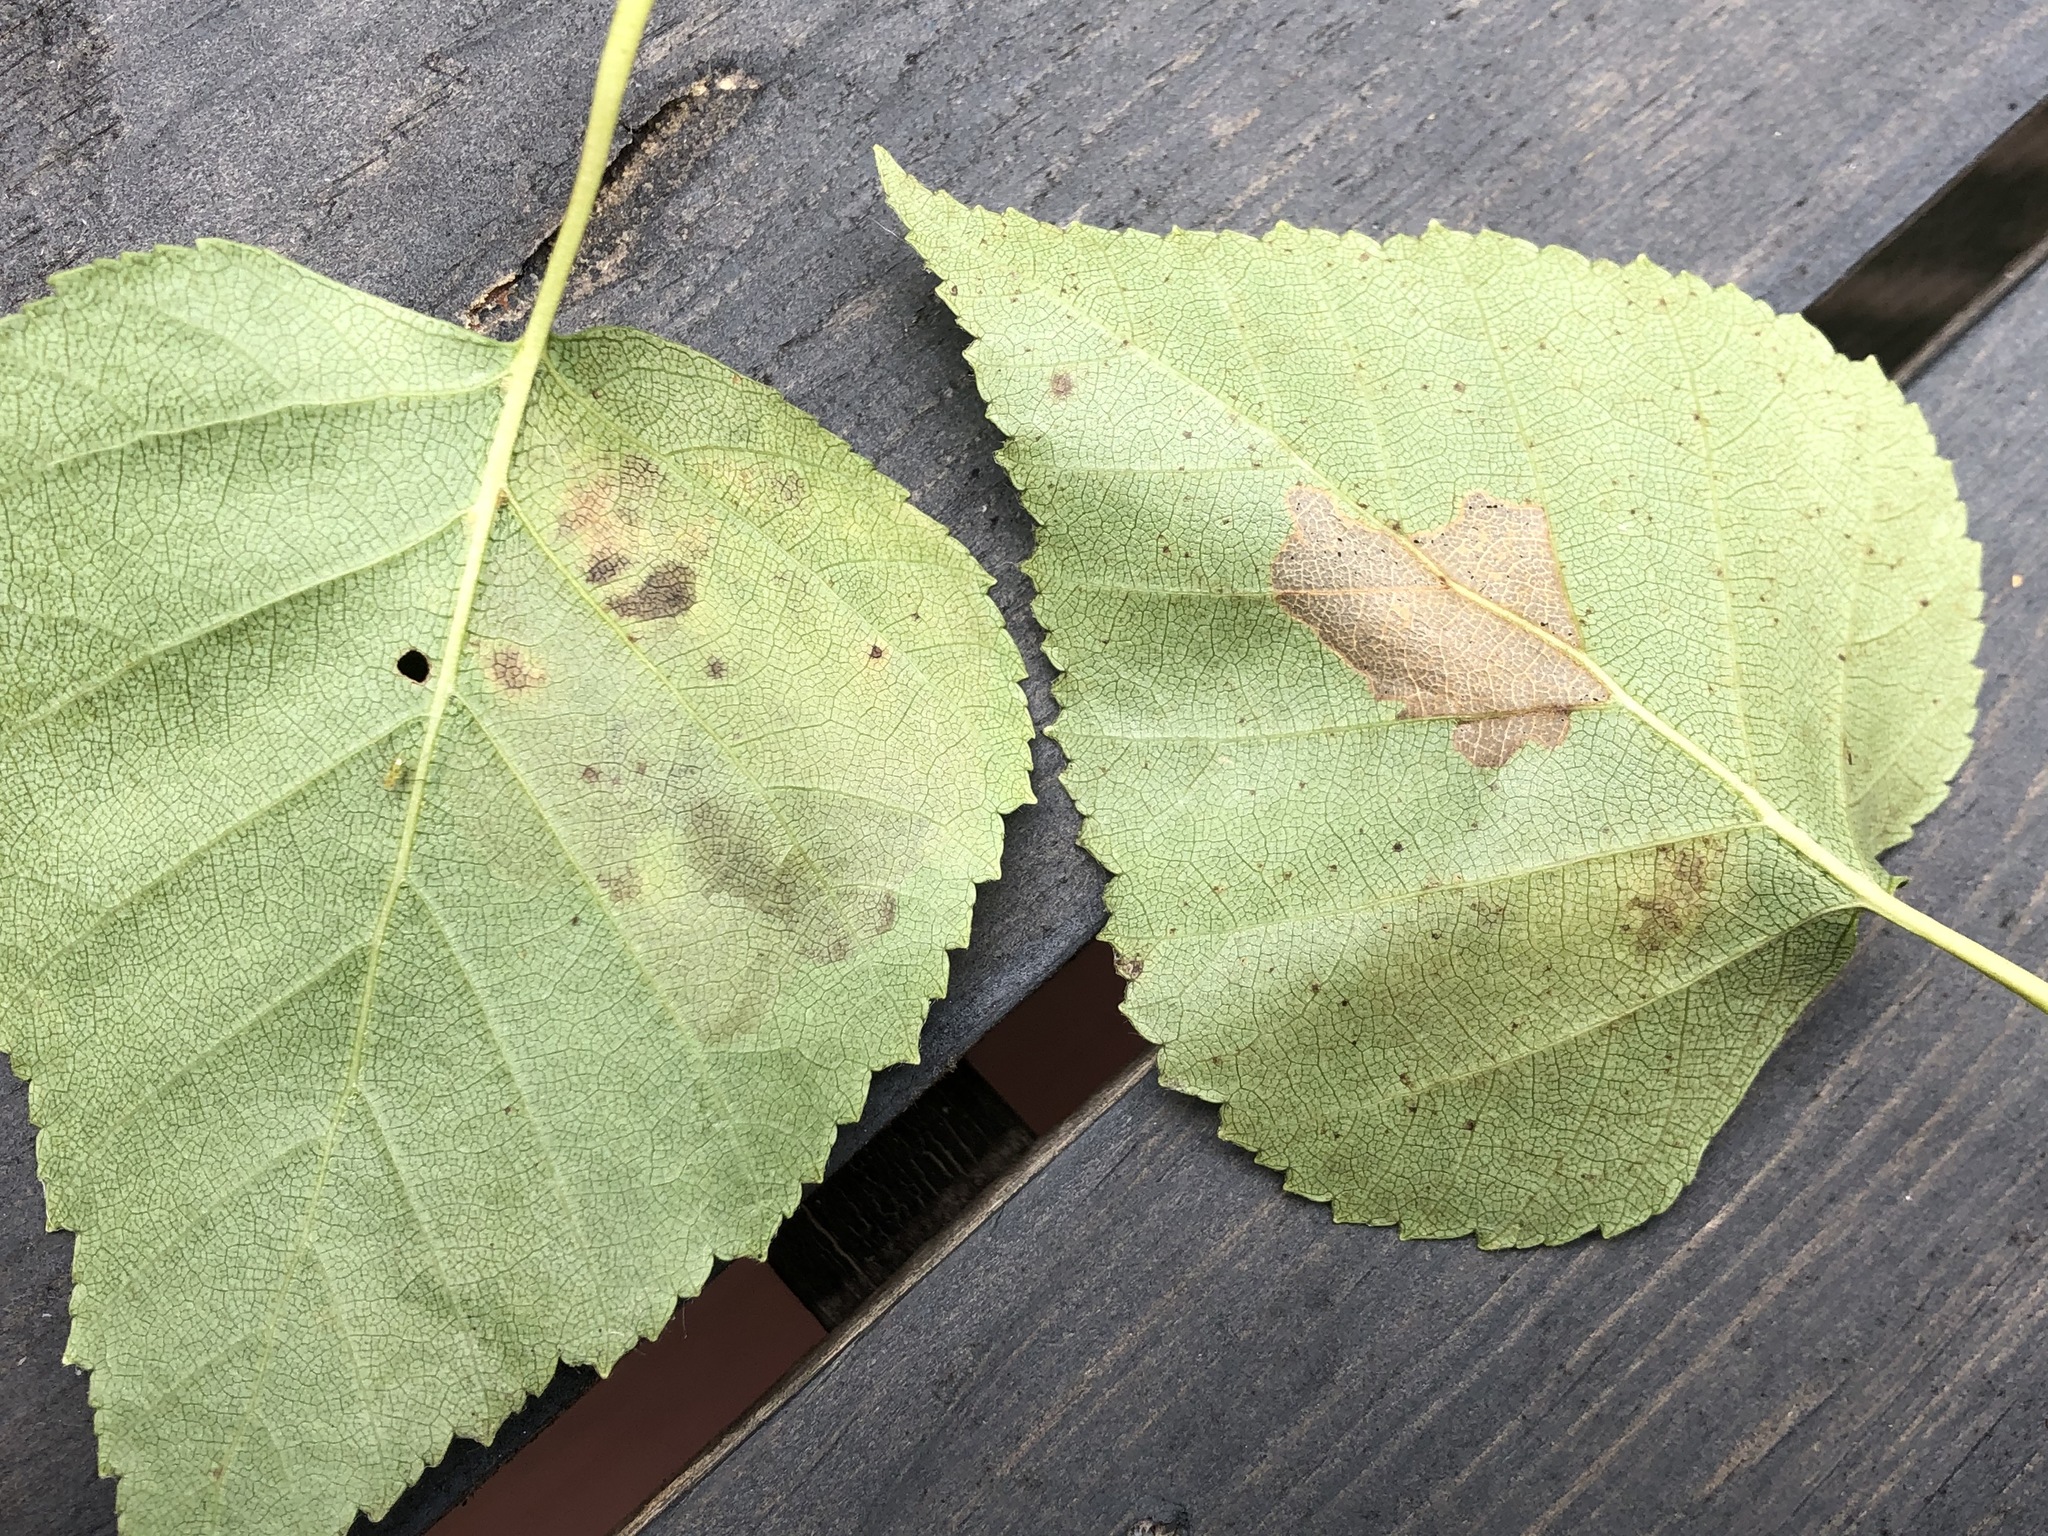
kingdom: Animalia
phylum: Arthropoda
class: Insecta
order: Hymenoptera
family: Tenthredinidae
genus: Profenusa
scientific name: Profenusa thomsoni
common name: Amber-marked birch leafminer
